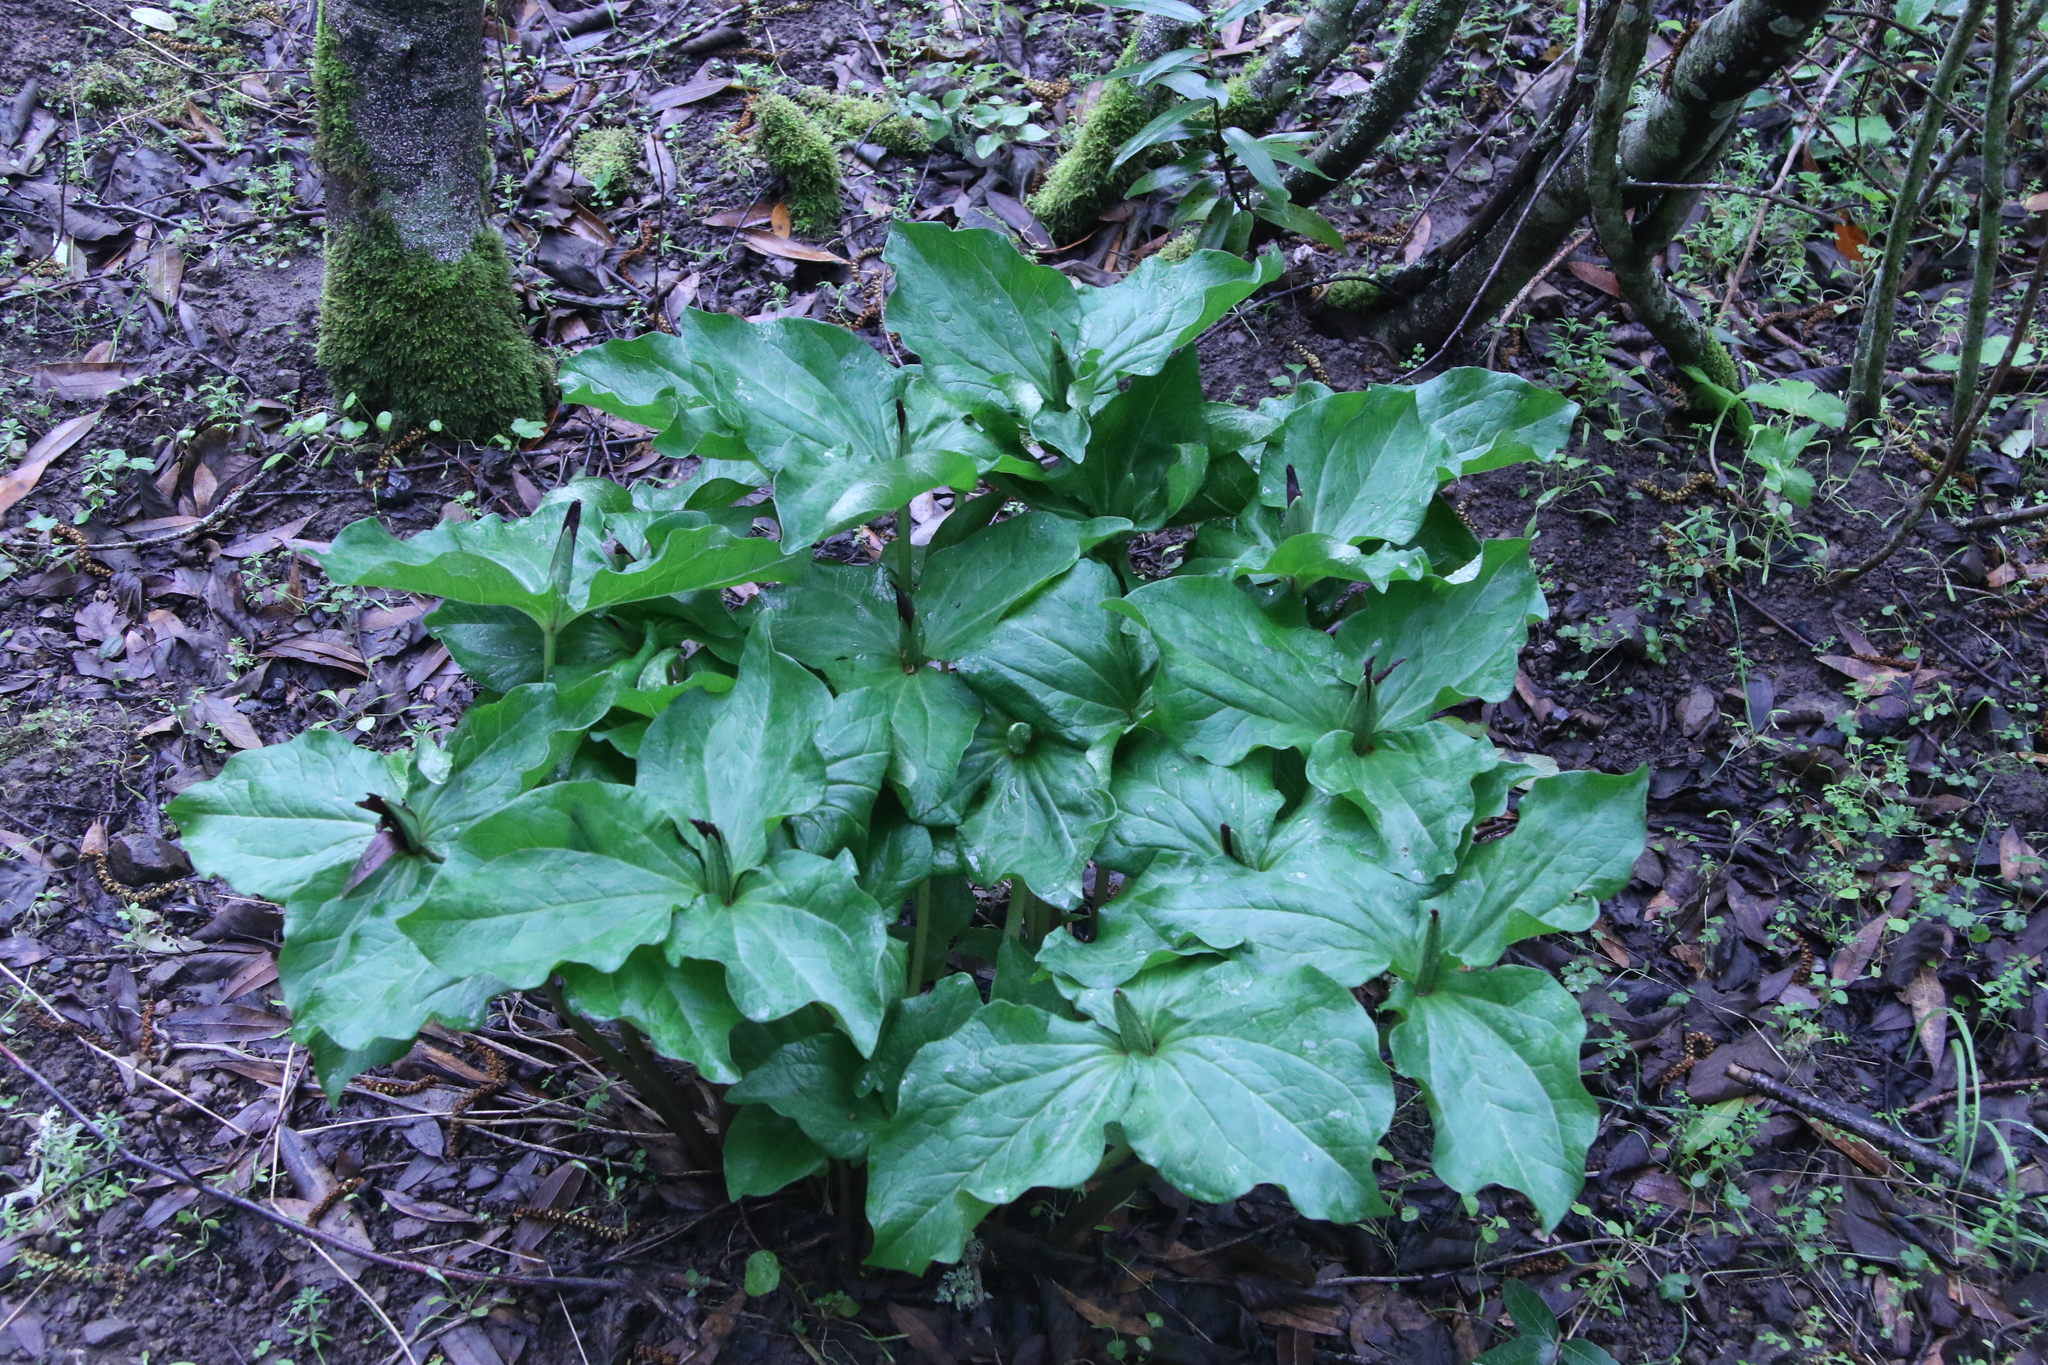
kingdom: Plantae
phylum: Tracheophyta
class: Liliopsida
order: Liliales
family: Melanthiaceae
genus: Trillium
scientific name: Trillium chloropetalum
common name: Giant trillium
